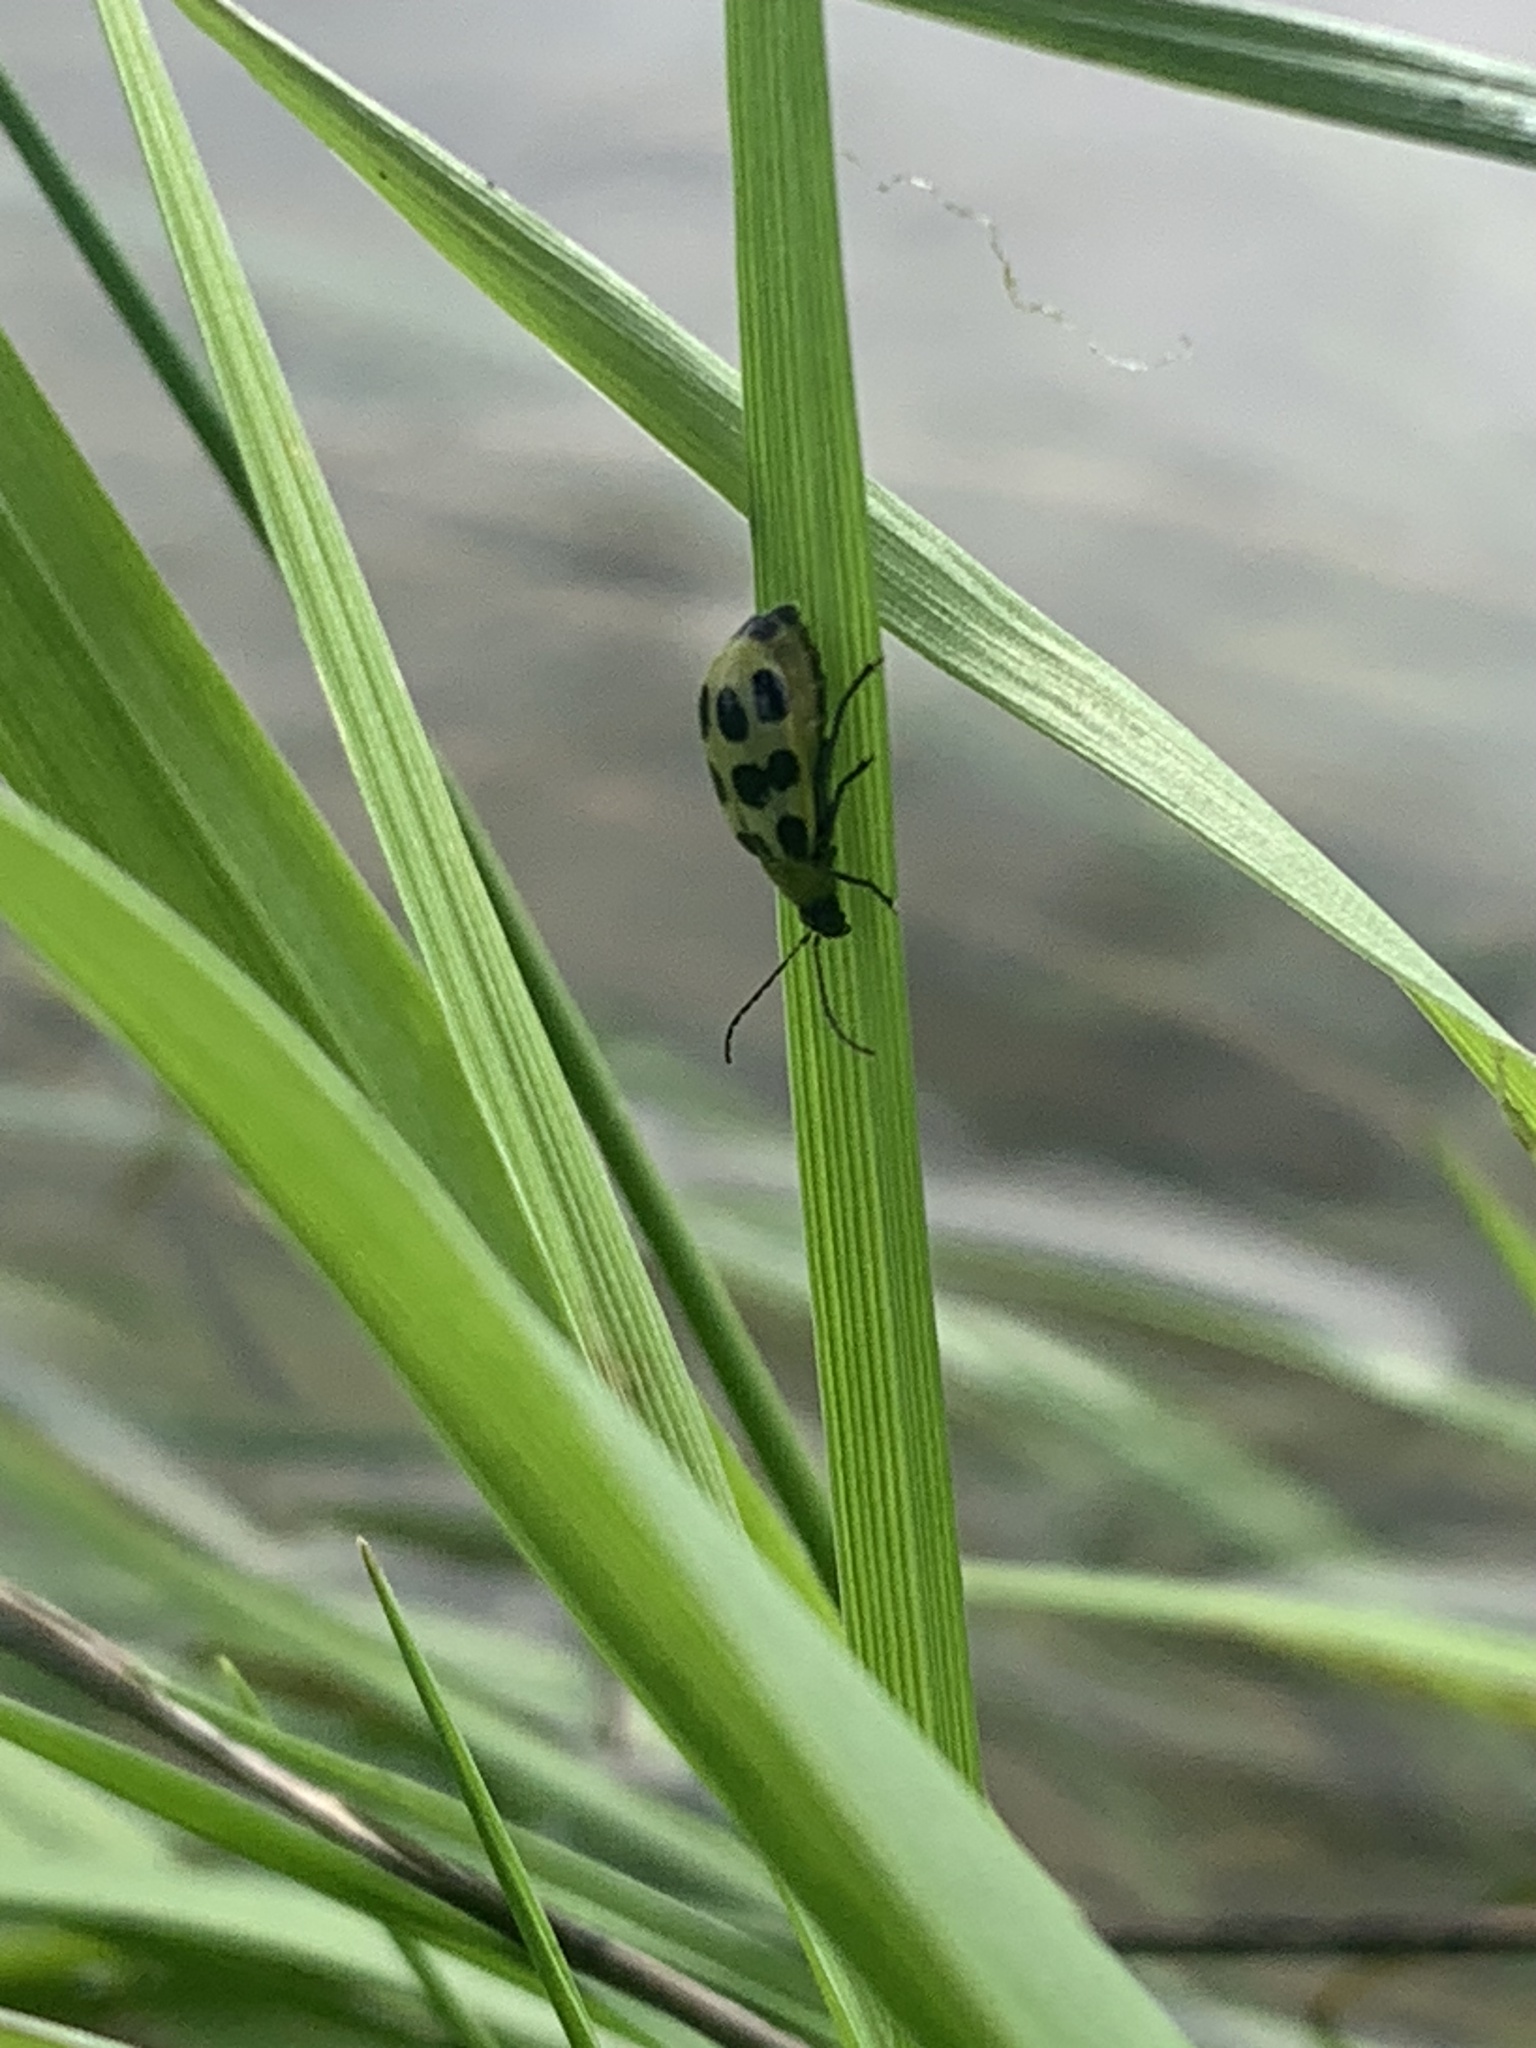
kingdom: Animalia
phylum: Arthropoda
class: Insecta
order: Coleoptera
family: Chrysomelidae
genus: Diabrotica
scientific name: Diabrotica undecimpunctata
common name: Spotted cucumber beetle
